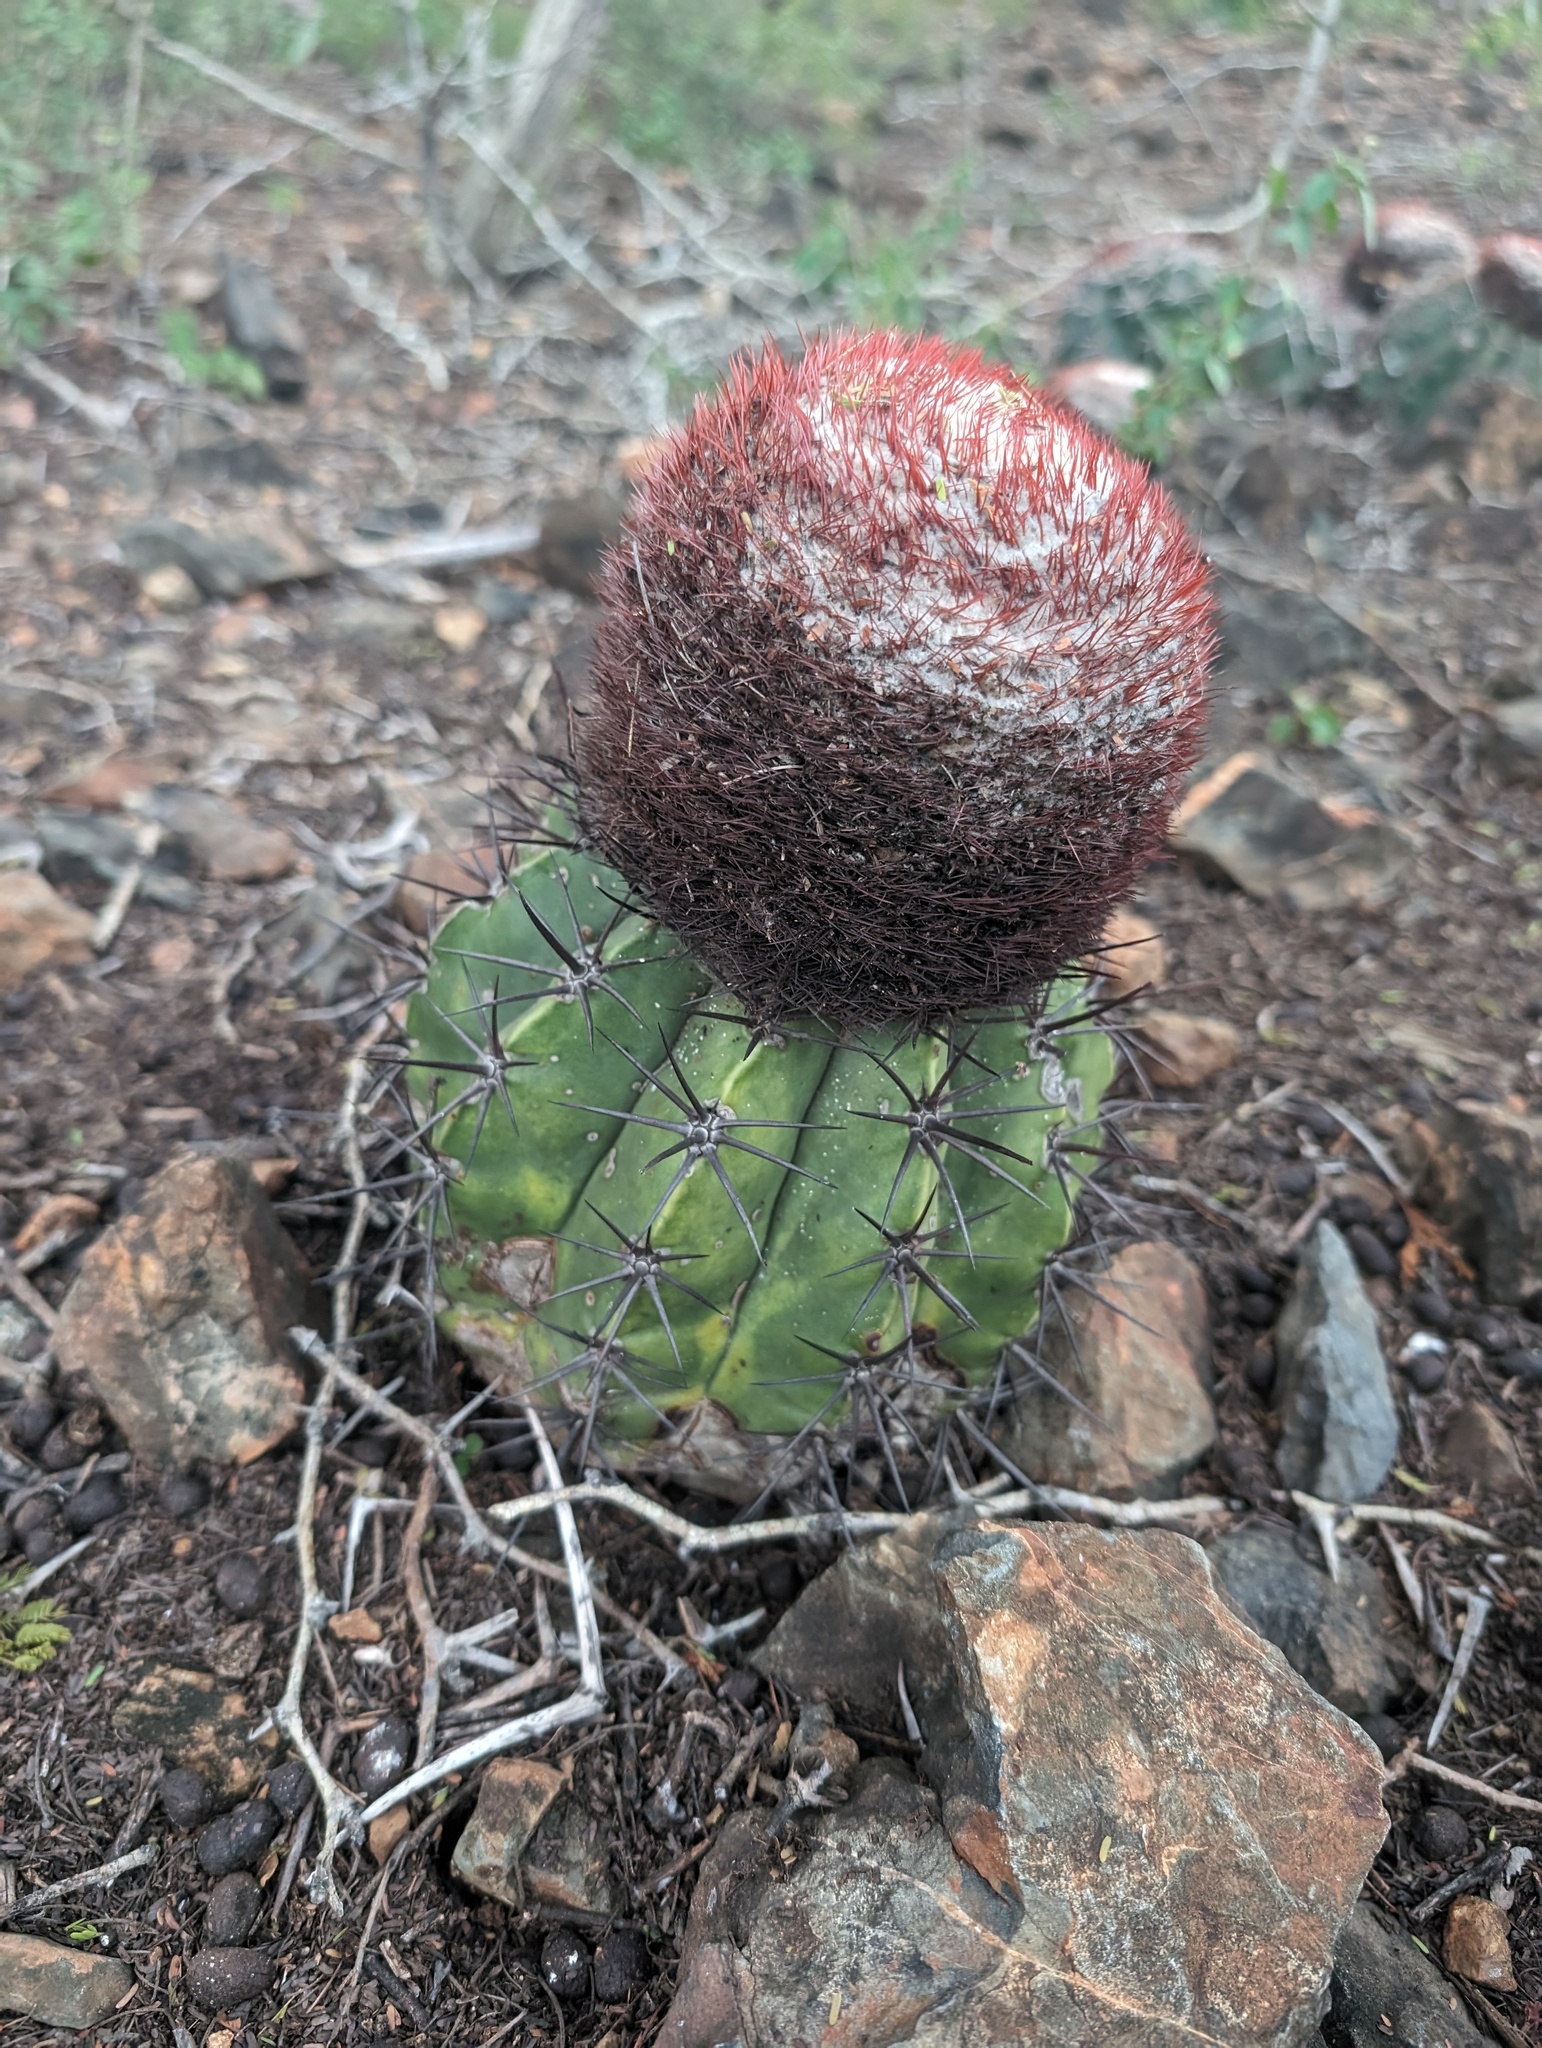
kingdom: Plantae
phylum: Tracheophyta
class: Magnoliopsida
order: Caryophyllales
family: Cactaceae
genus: Melocactus
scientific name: Melocactus curvispinus
